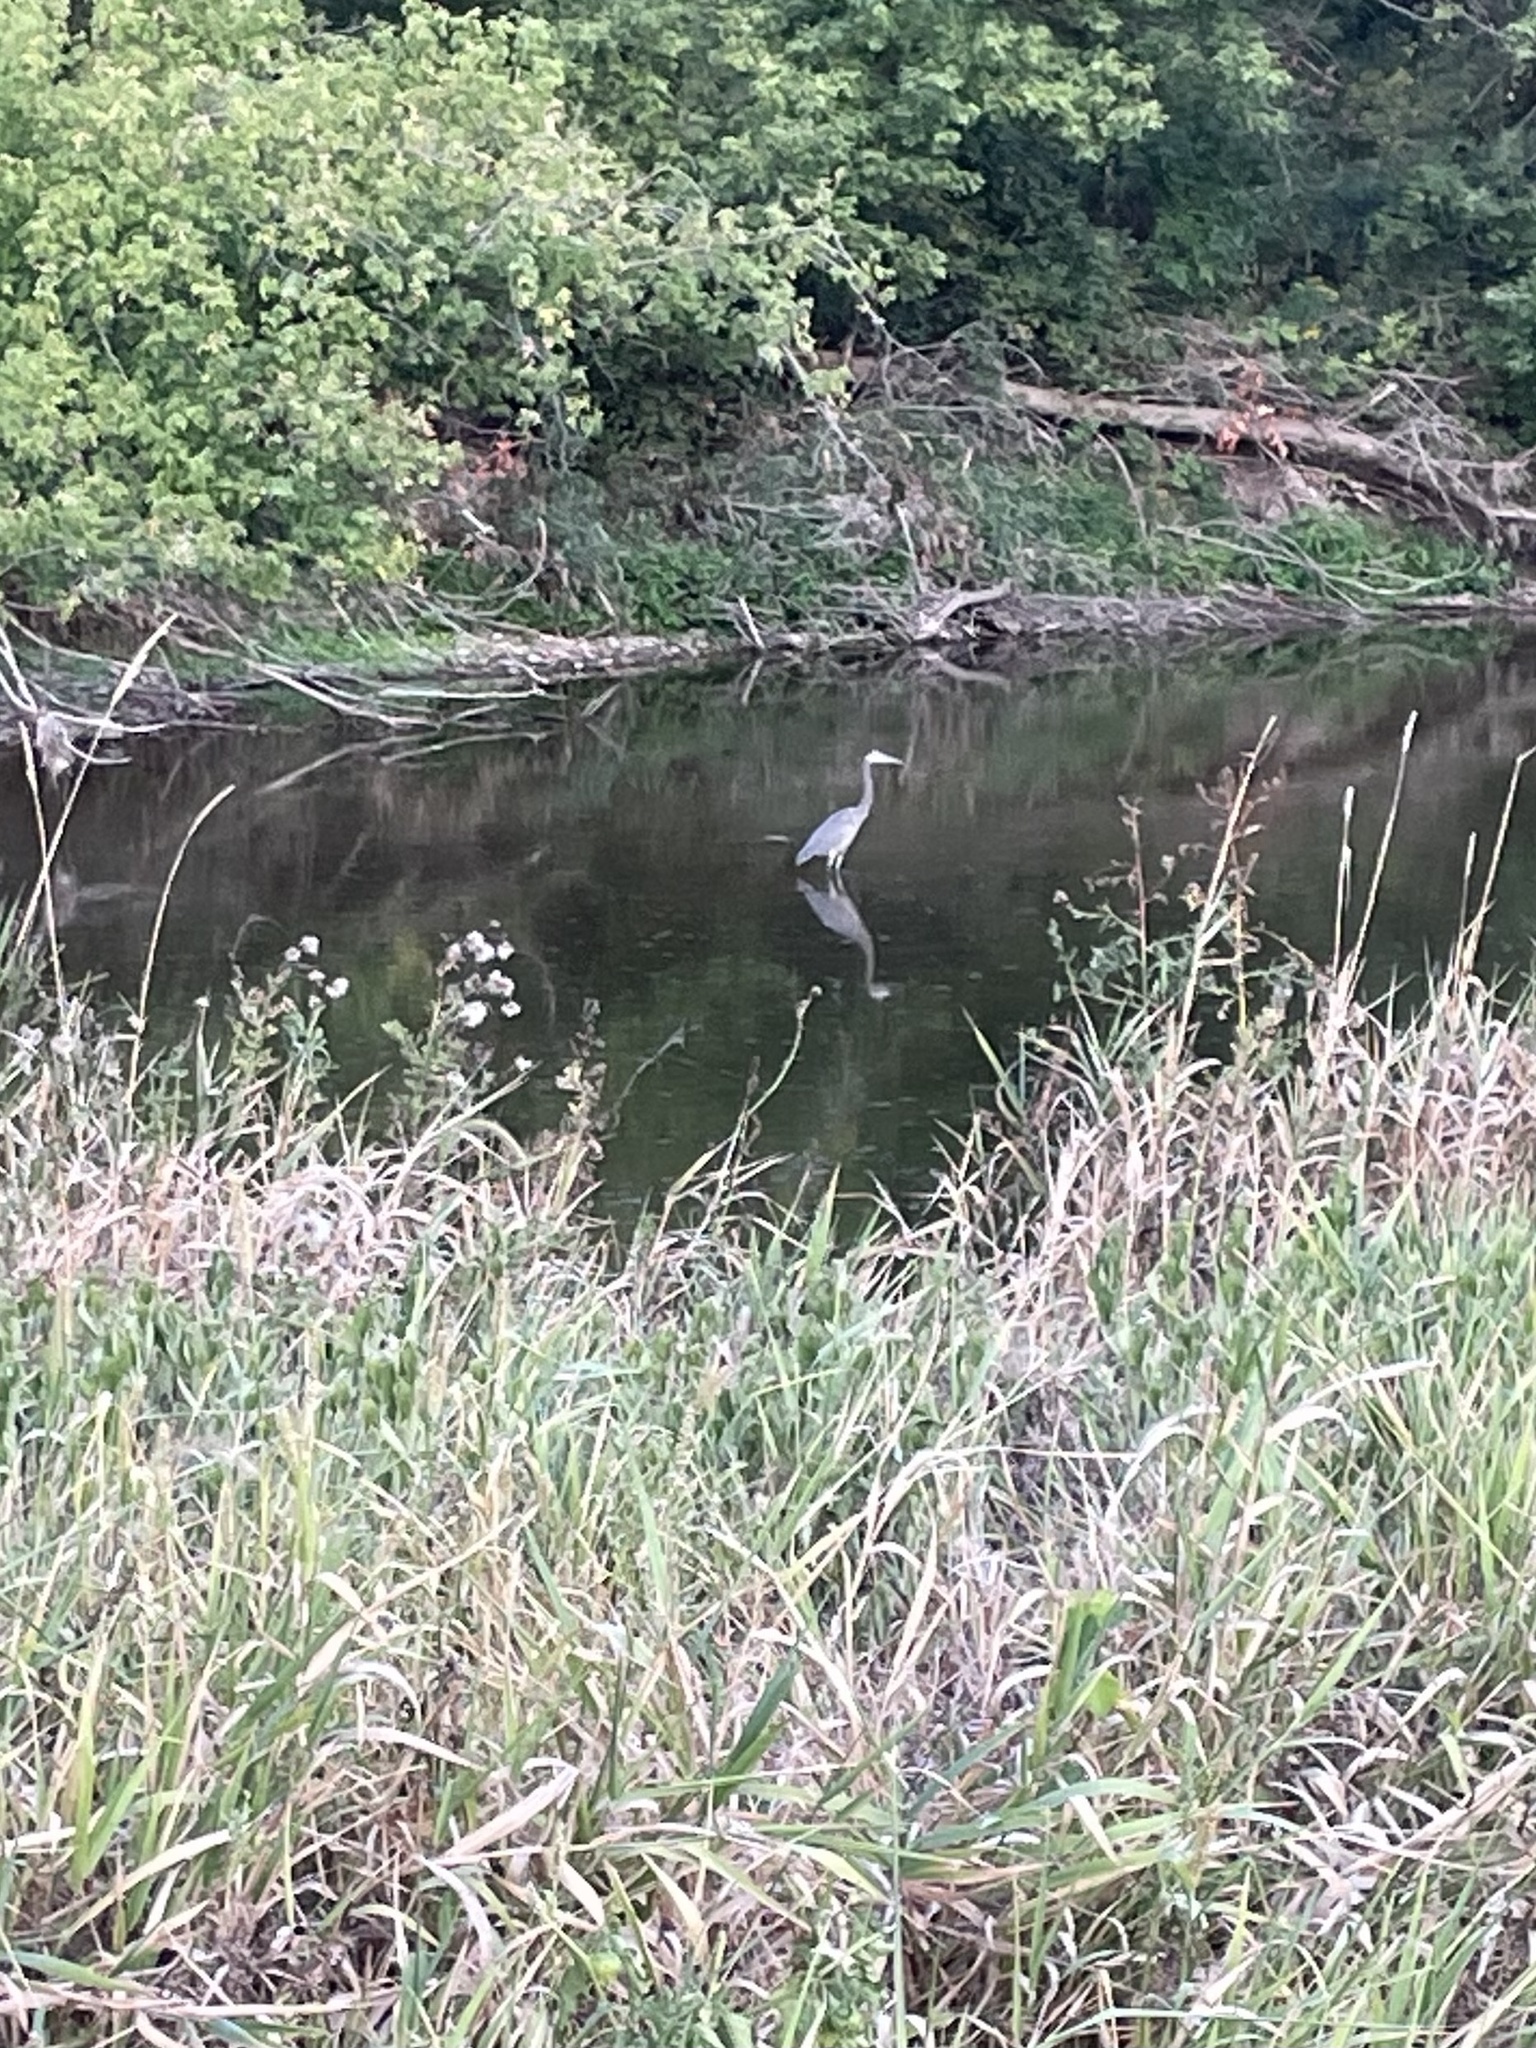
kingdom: Animalia
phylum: Chordata
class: Aves
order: Pelecaniformes
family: Ardeidae
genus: Ardea
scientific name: Ardea herodias
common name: Great blue heron
